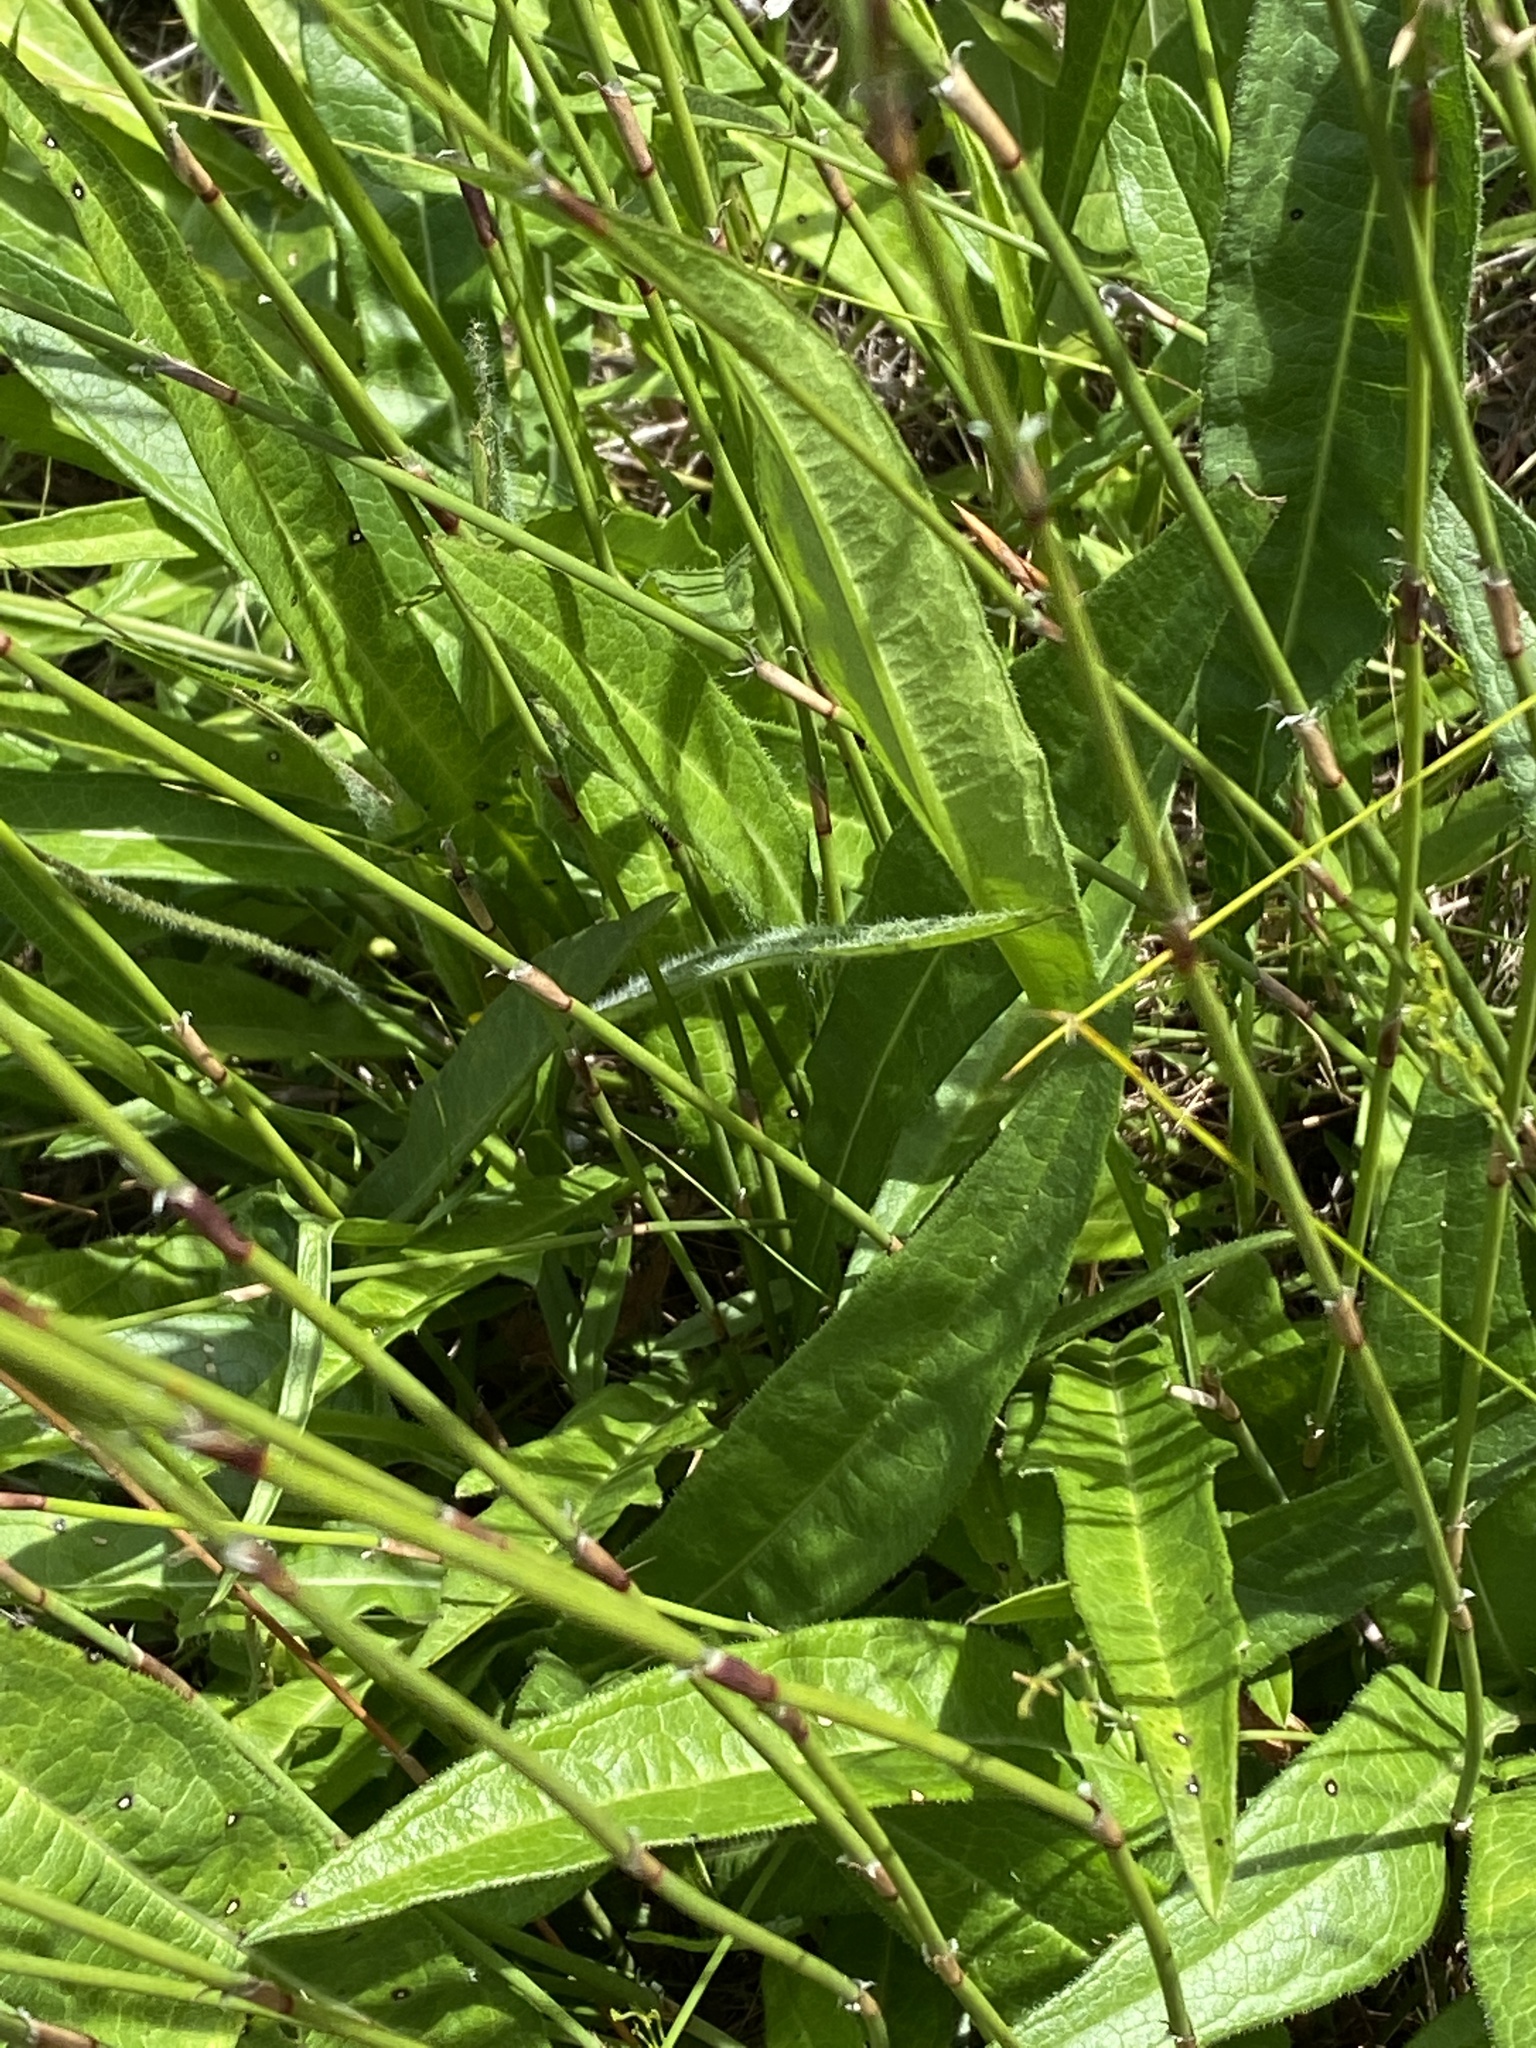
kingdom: Plantae
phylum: Tracheophyta
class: Magnoliopsida
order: Dipsacales
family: Caprifoliaceae
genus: Cephalaria
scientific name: Cephalaria humilis
